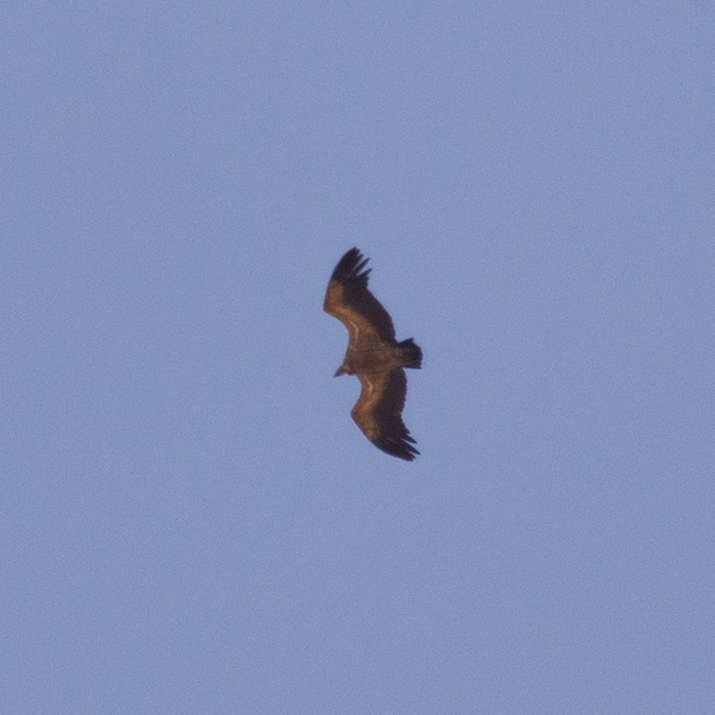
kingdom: Animalia
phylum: Chordata
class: Aves
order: Accipitriformes
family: Accipitridae
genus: Gyps
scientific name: Gyps fulvus
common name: Griffon vulture
